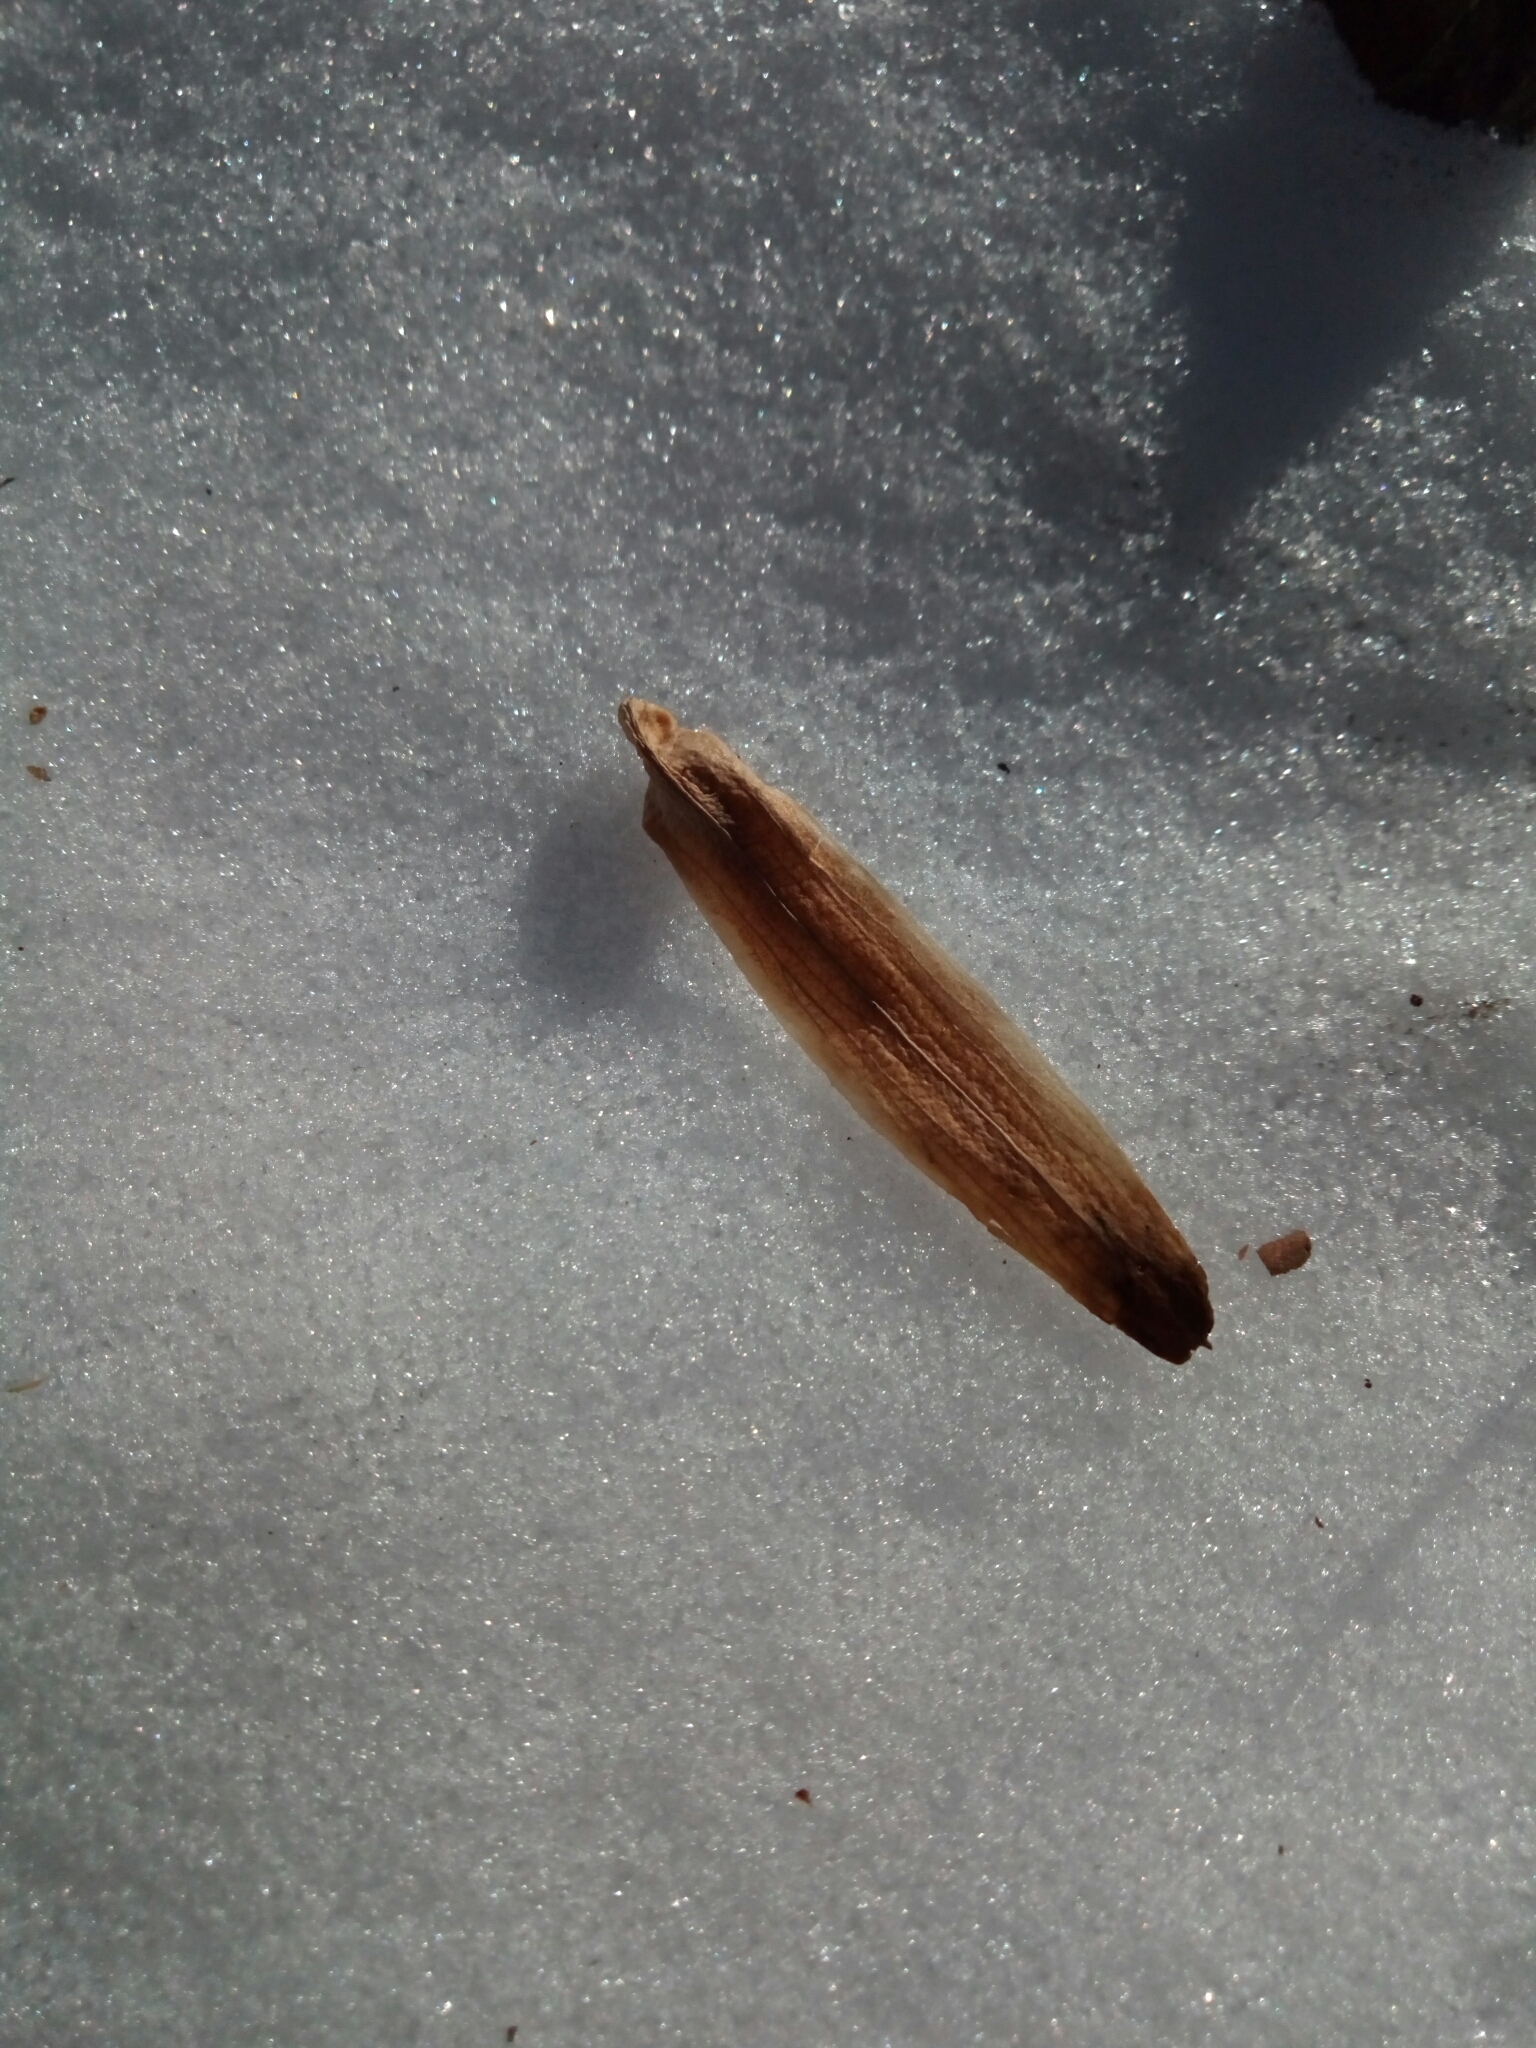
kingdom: Plantae
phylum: Tracheophyta
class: Magnoliopsida
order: Magnoliales
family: Magnoliaceae
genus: Liriodendron
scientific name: Liriodendron tulipifera
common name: Tulip tree
